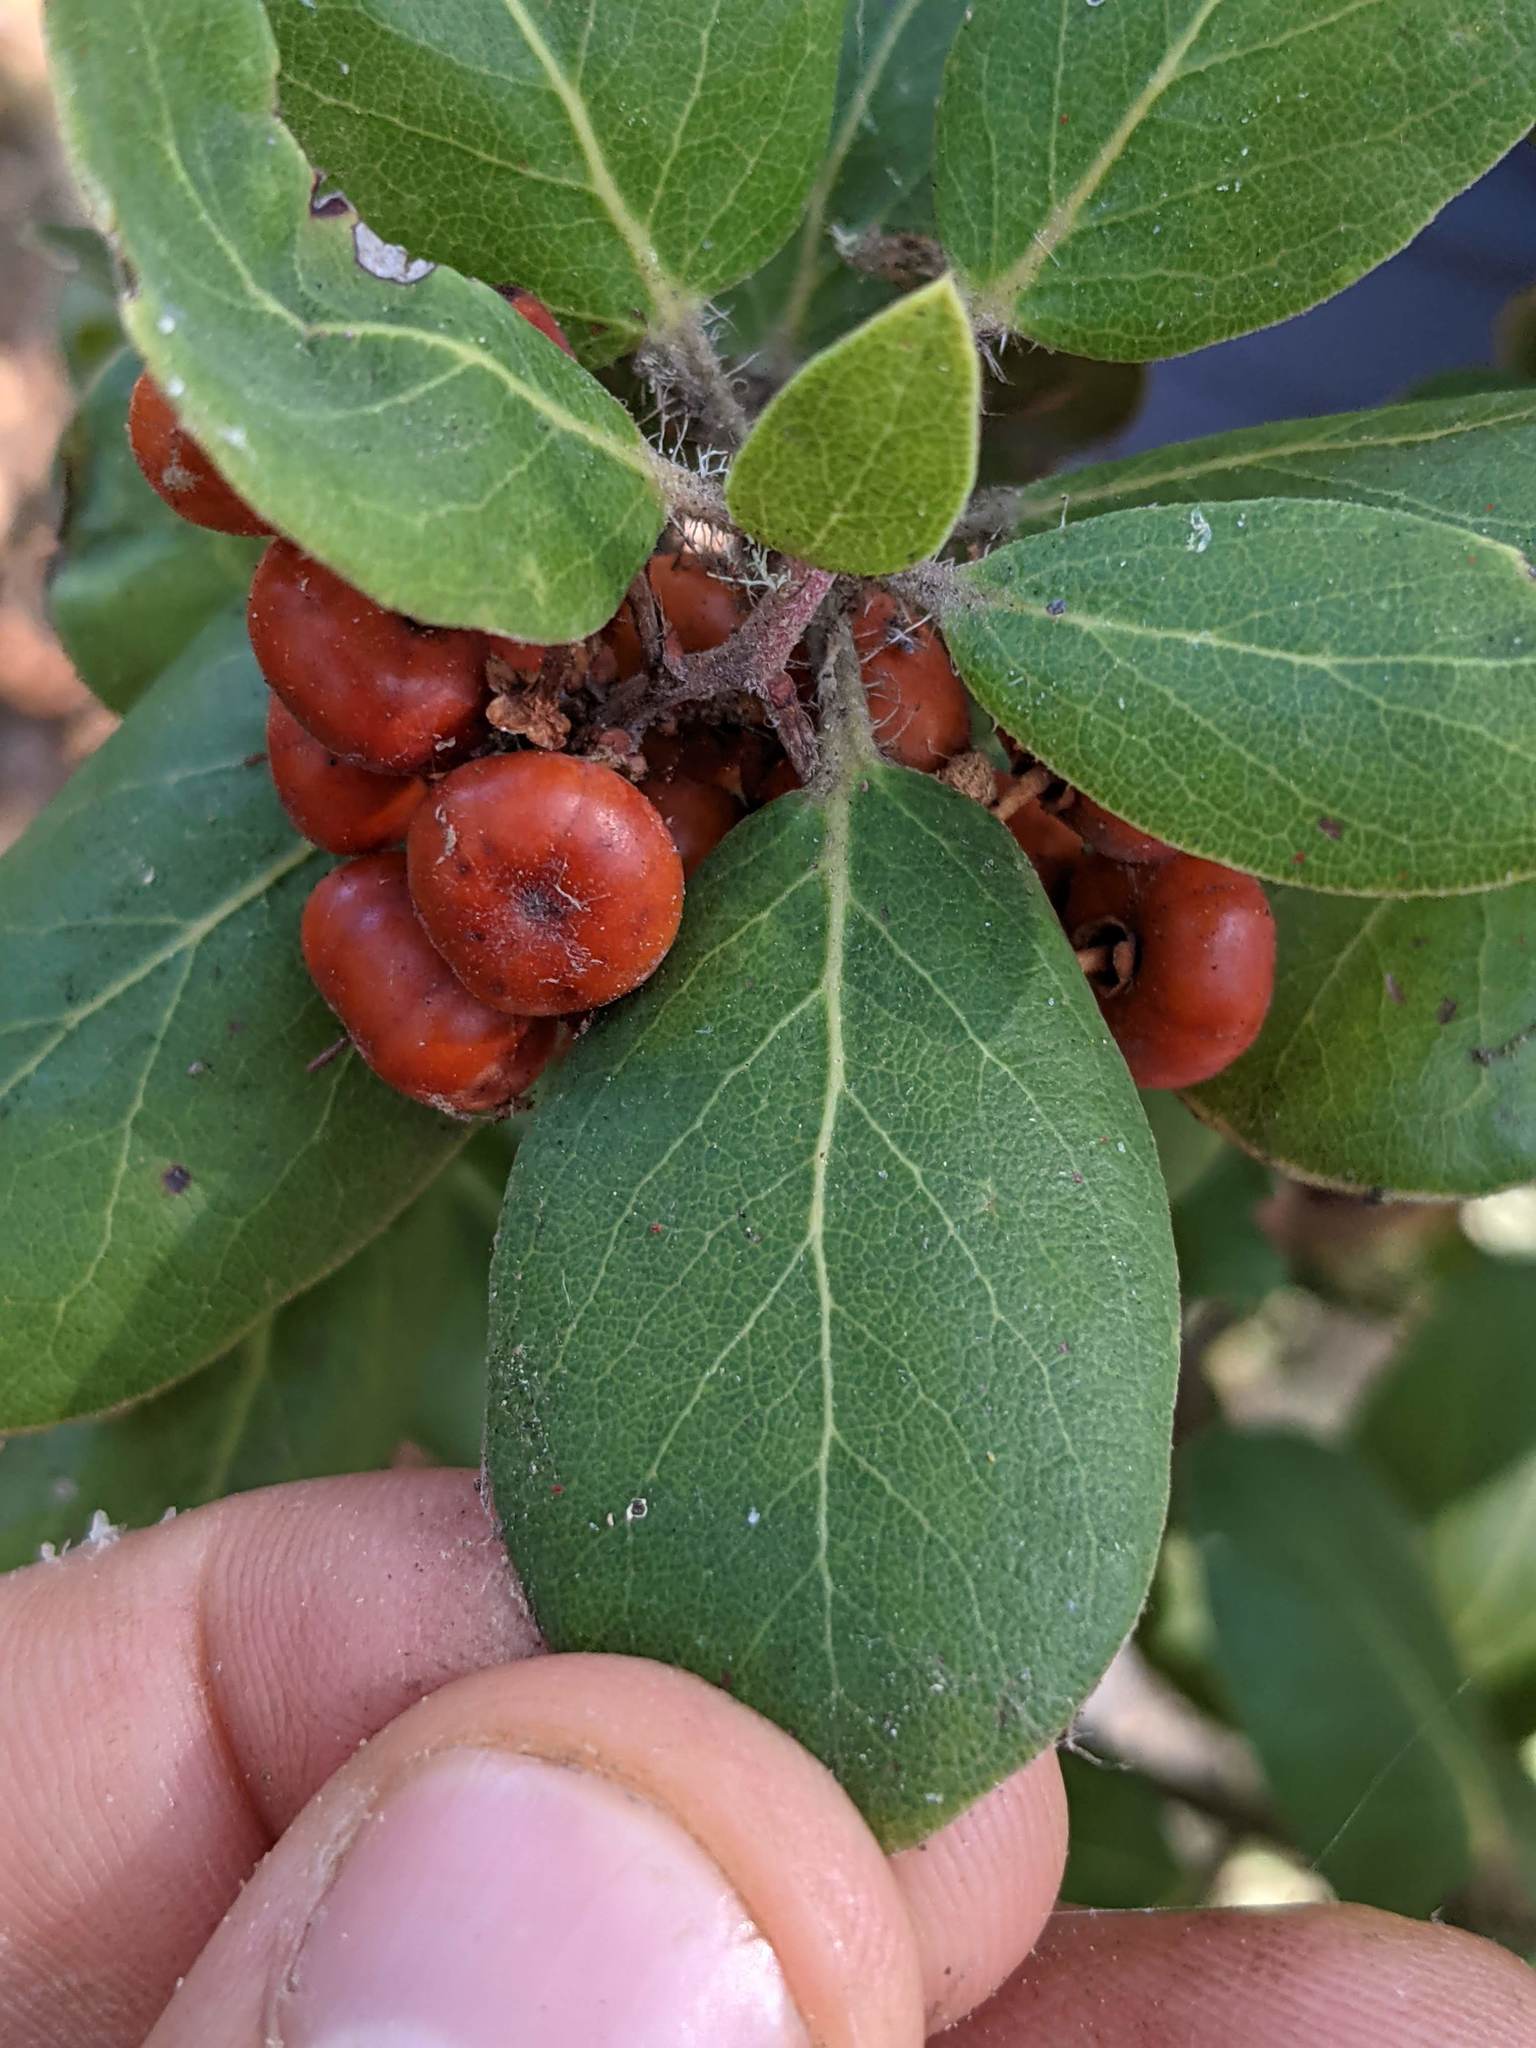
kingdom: Plantae
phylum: Tracheophyta
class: Magnoliopsida
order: Ericales
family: Ericaceae
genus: Arctostaphylos
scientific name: Arctostaphylos crustacea
